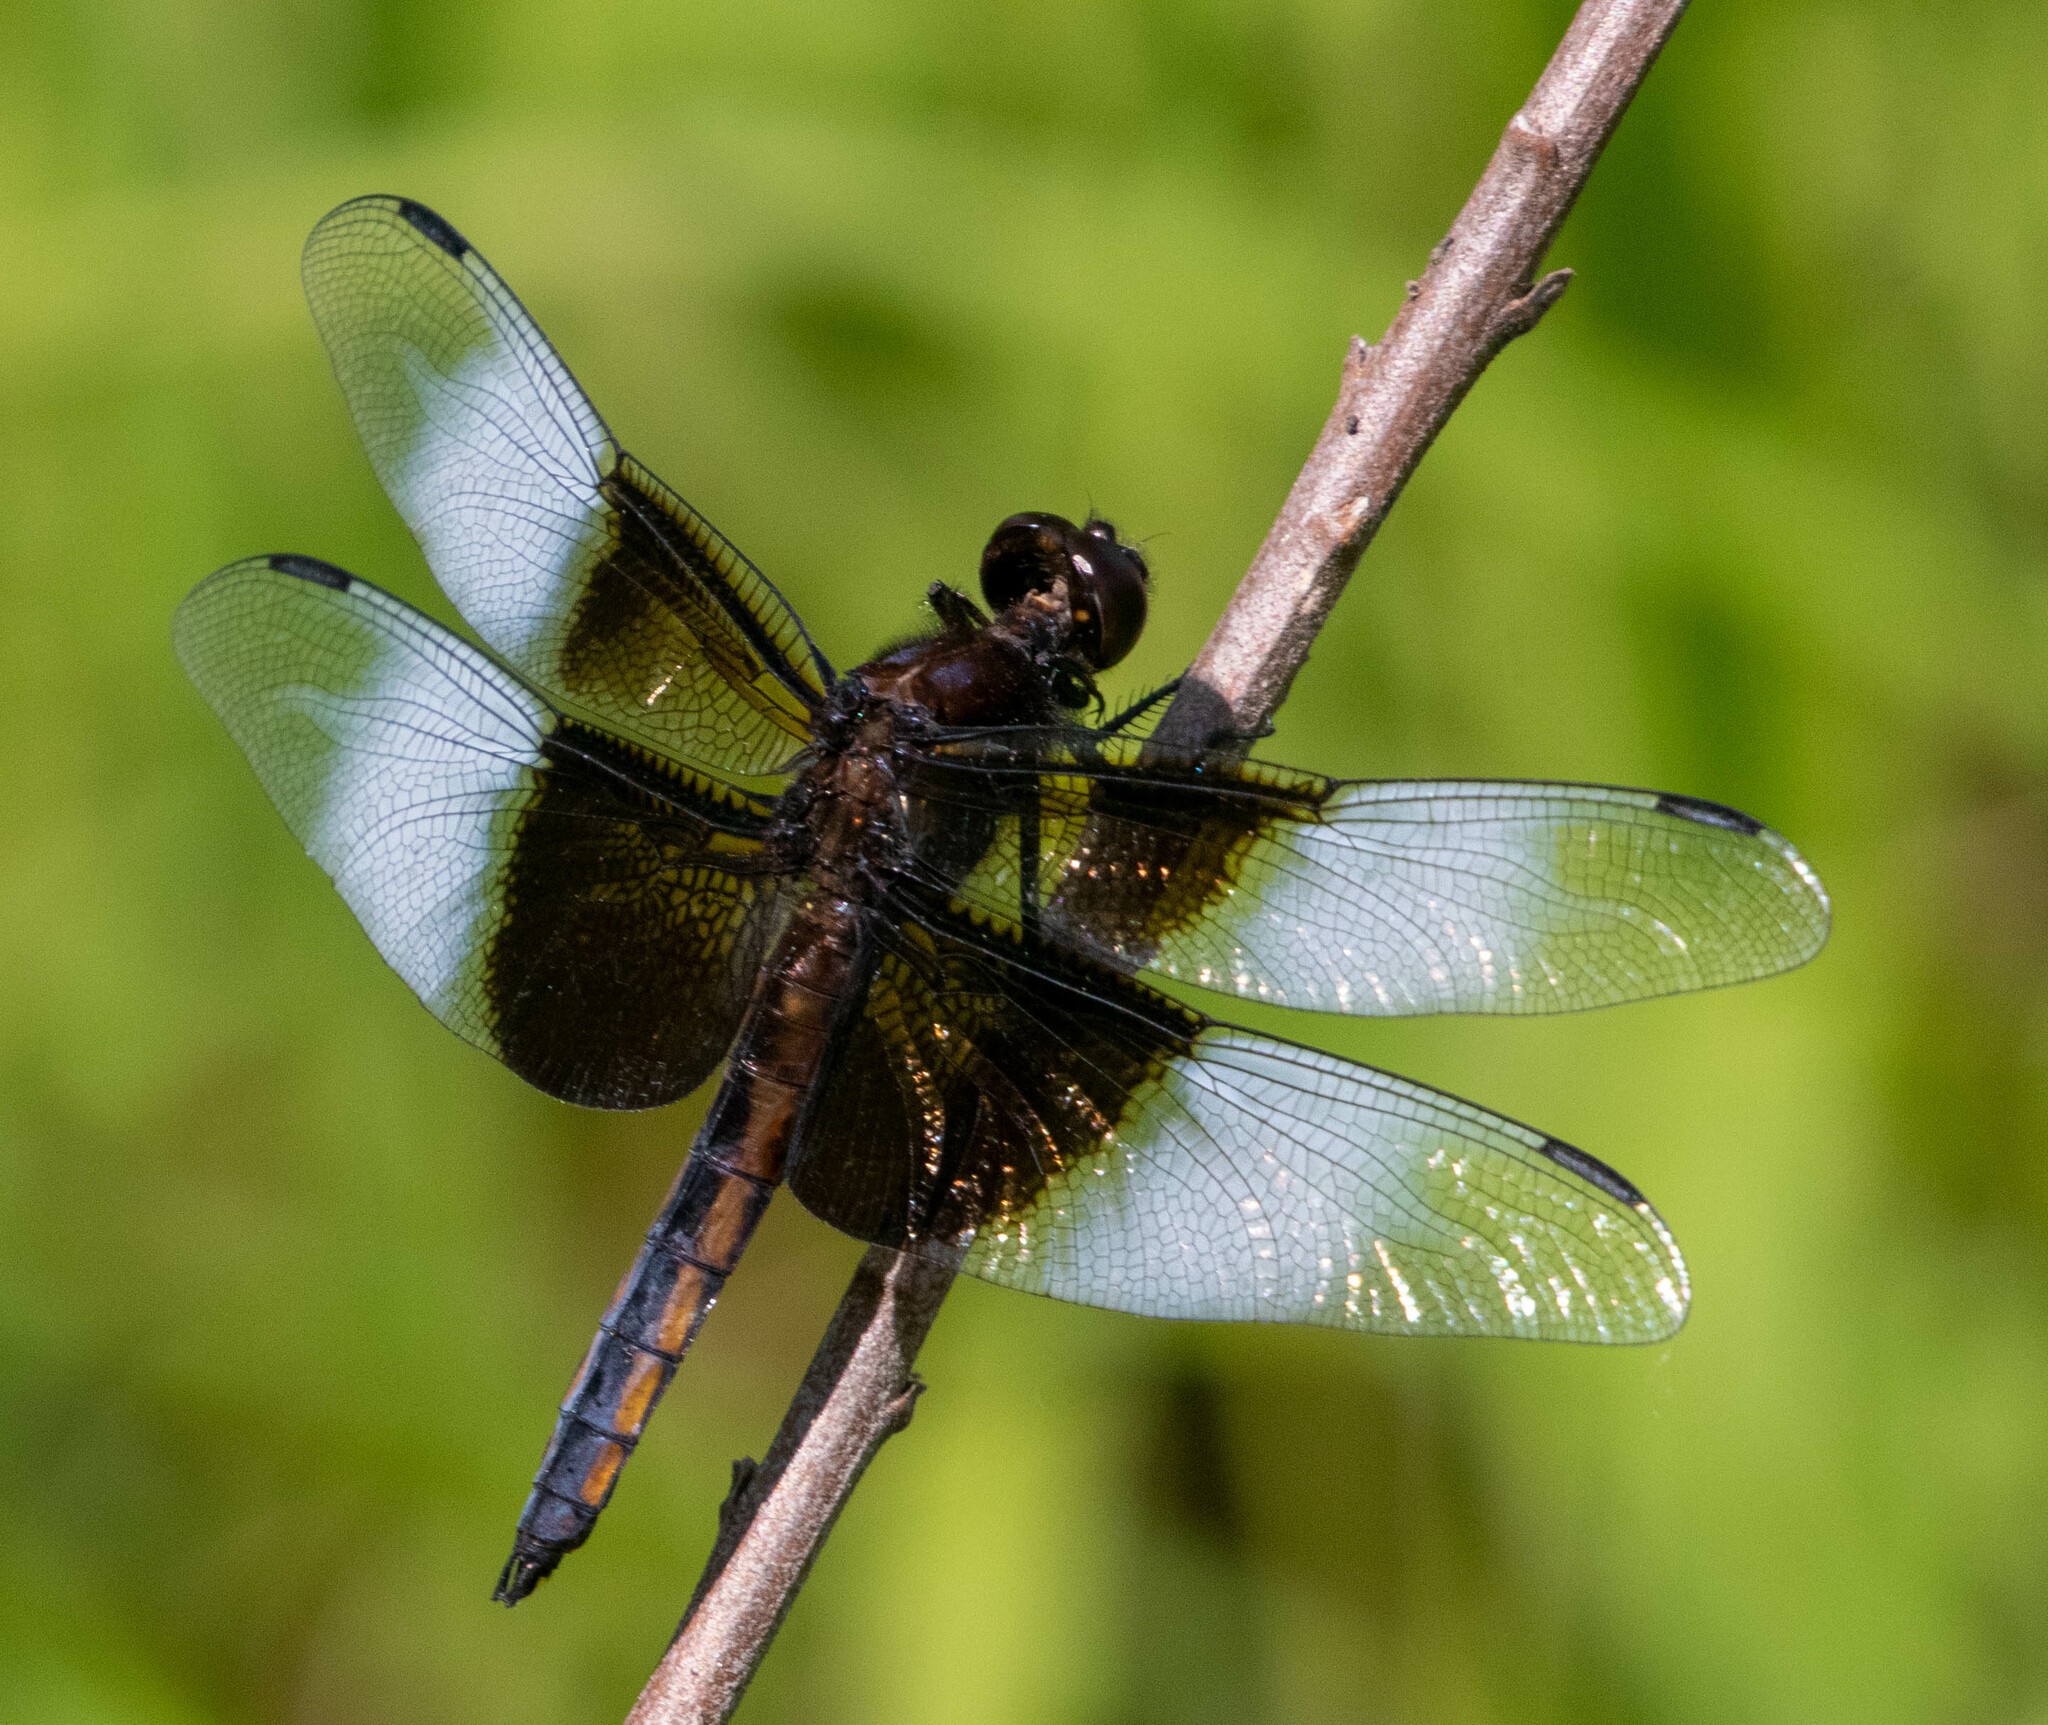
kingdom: Animalia
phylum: Arthropoda
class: Insecta
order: Odonata
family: Libellulidae
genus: Libellula
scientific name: Libellula luctuosa
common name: Widow skimmer
